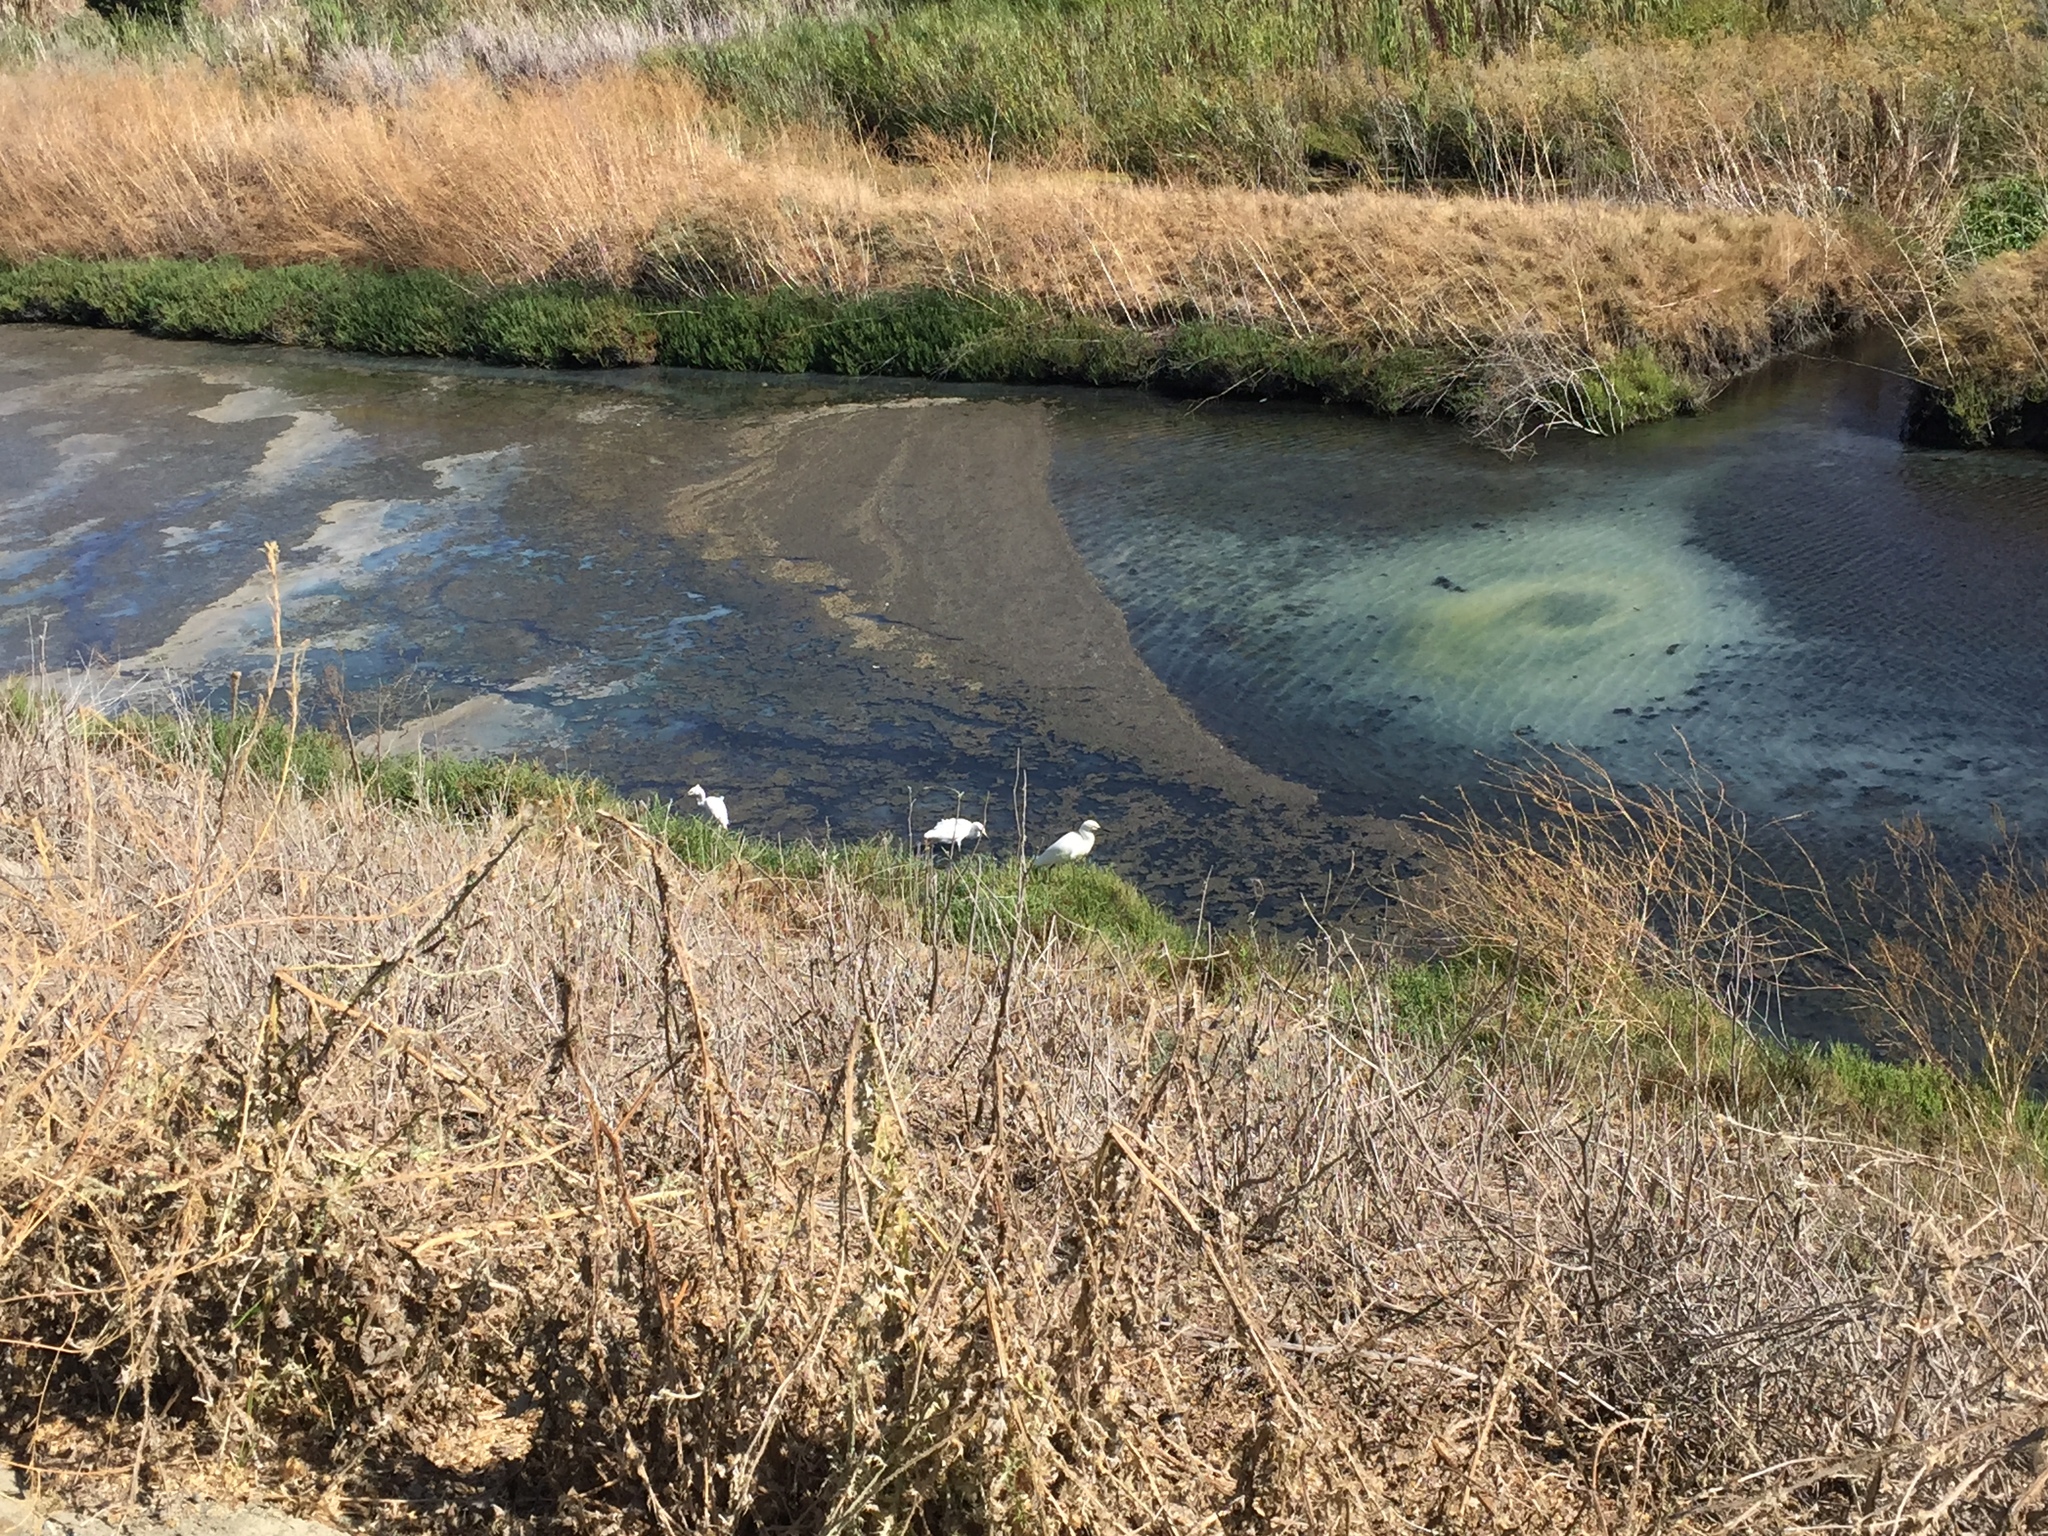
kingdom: Animalia
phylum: Chordata
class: Aves
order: Pelecaniformes
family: Ardeidae
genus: Egretta
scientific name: Egretta thula
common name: Snowy egret
